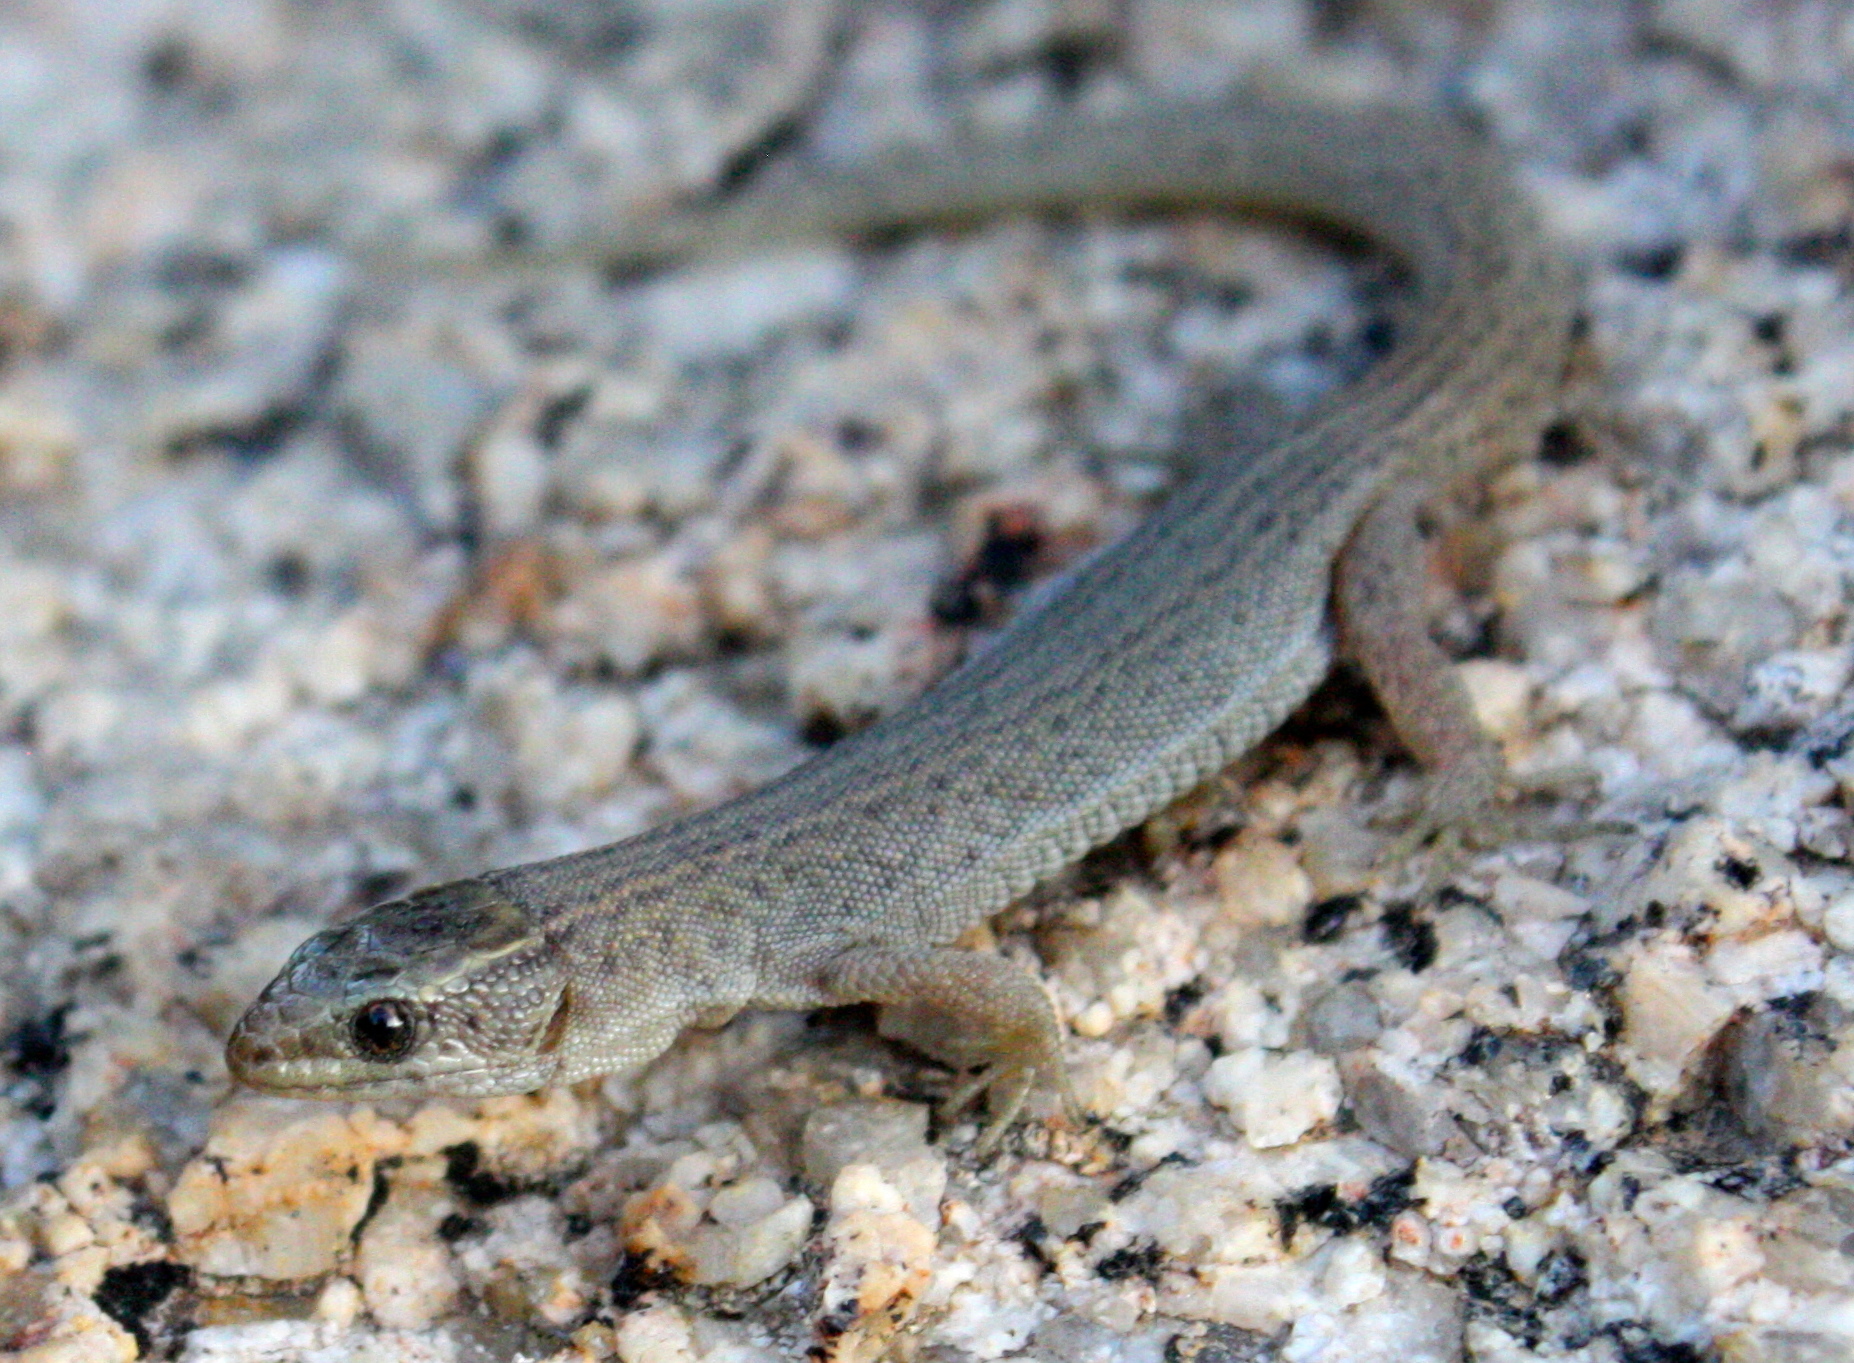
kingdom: Animalia
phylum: Chordata
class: Squamata
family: Xantusiidae
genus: Xantusia
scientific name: Xantusia vigilis
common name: Desert night lizard
